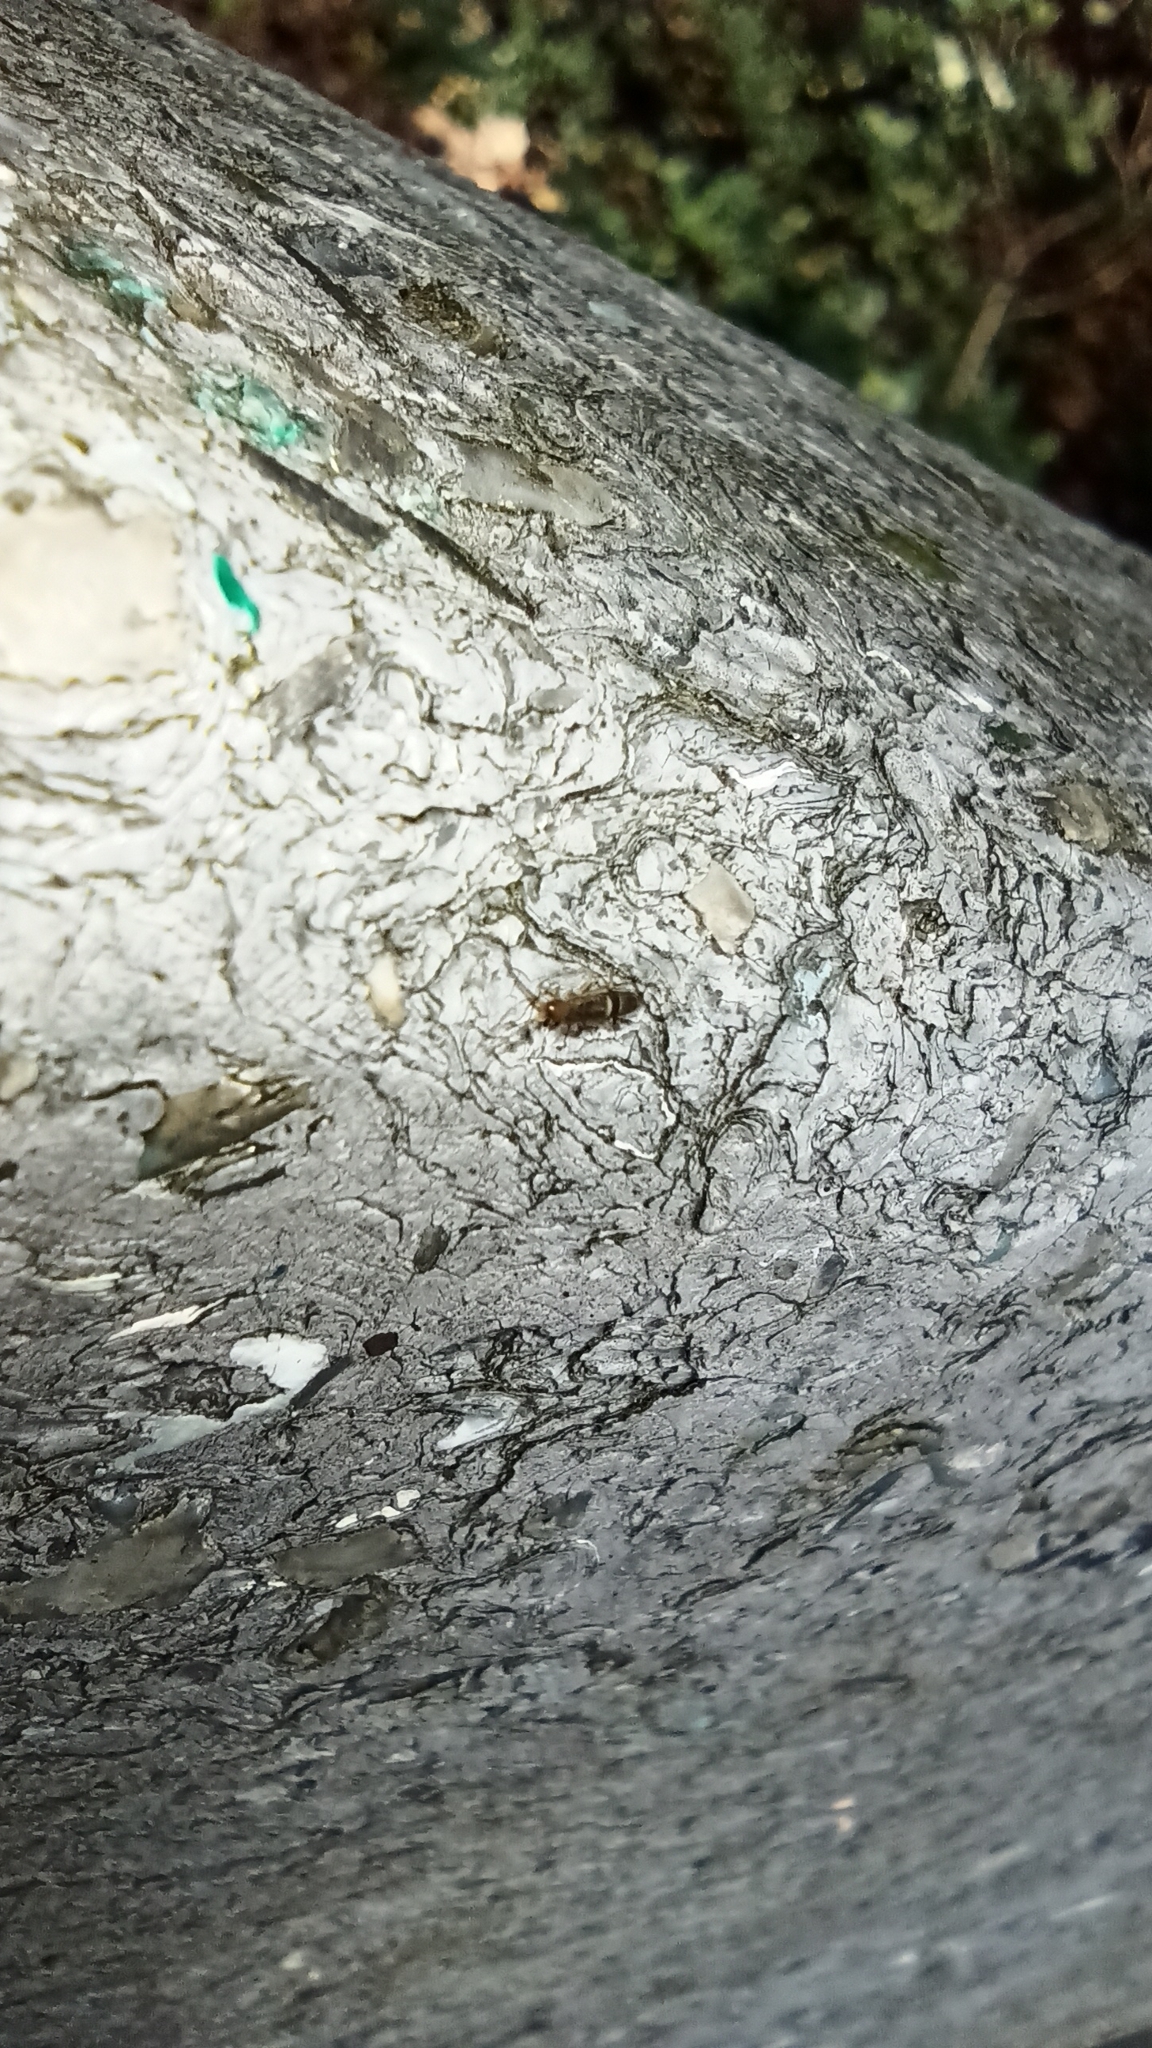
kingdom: Animalia
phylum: Arthropoda
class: Collembola
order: Entomobryomorpha
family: Orchesellidae
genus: Orchesella
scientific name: Orchesella cincta
